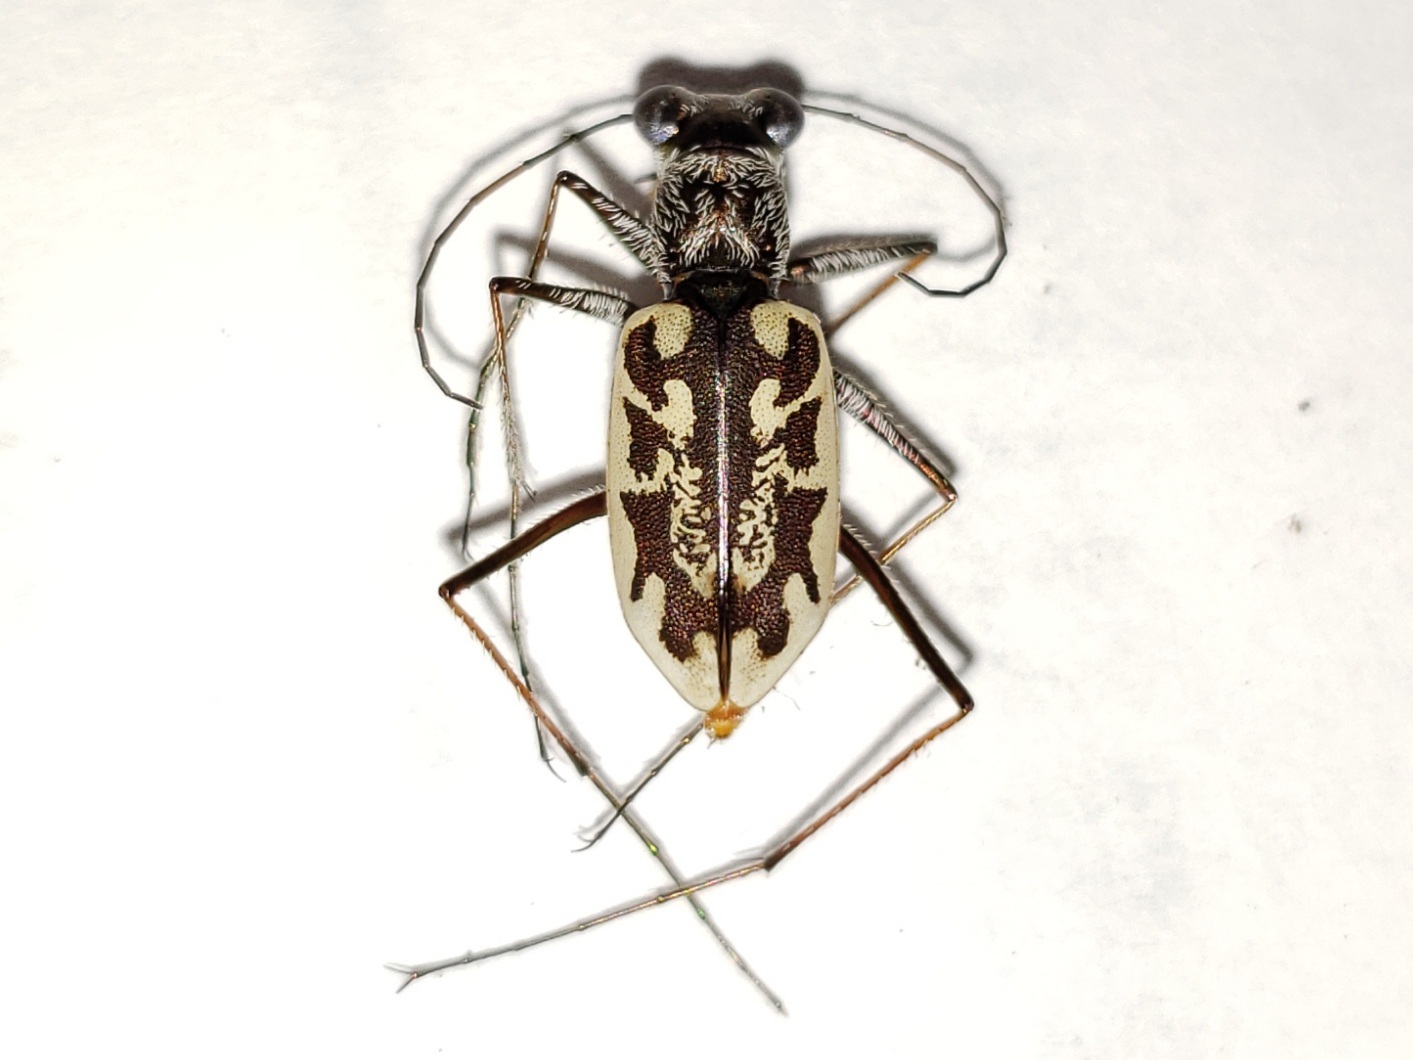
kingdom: Animalia
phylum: Arthropoda
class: Insecta
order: Coleoptera
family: Carabidae
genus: Ellipsoptera
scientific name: Ellipsoptera hamata
